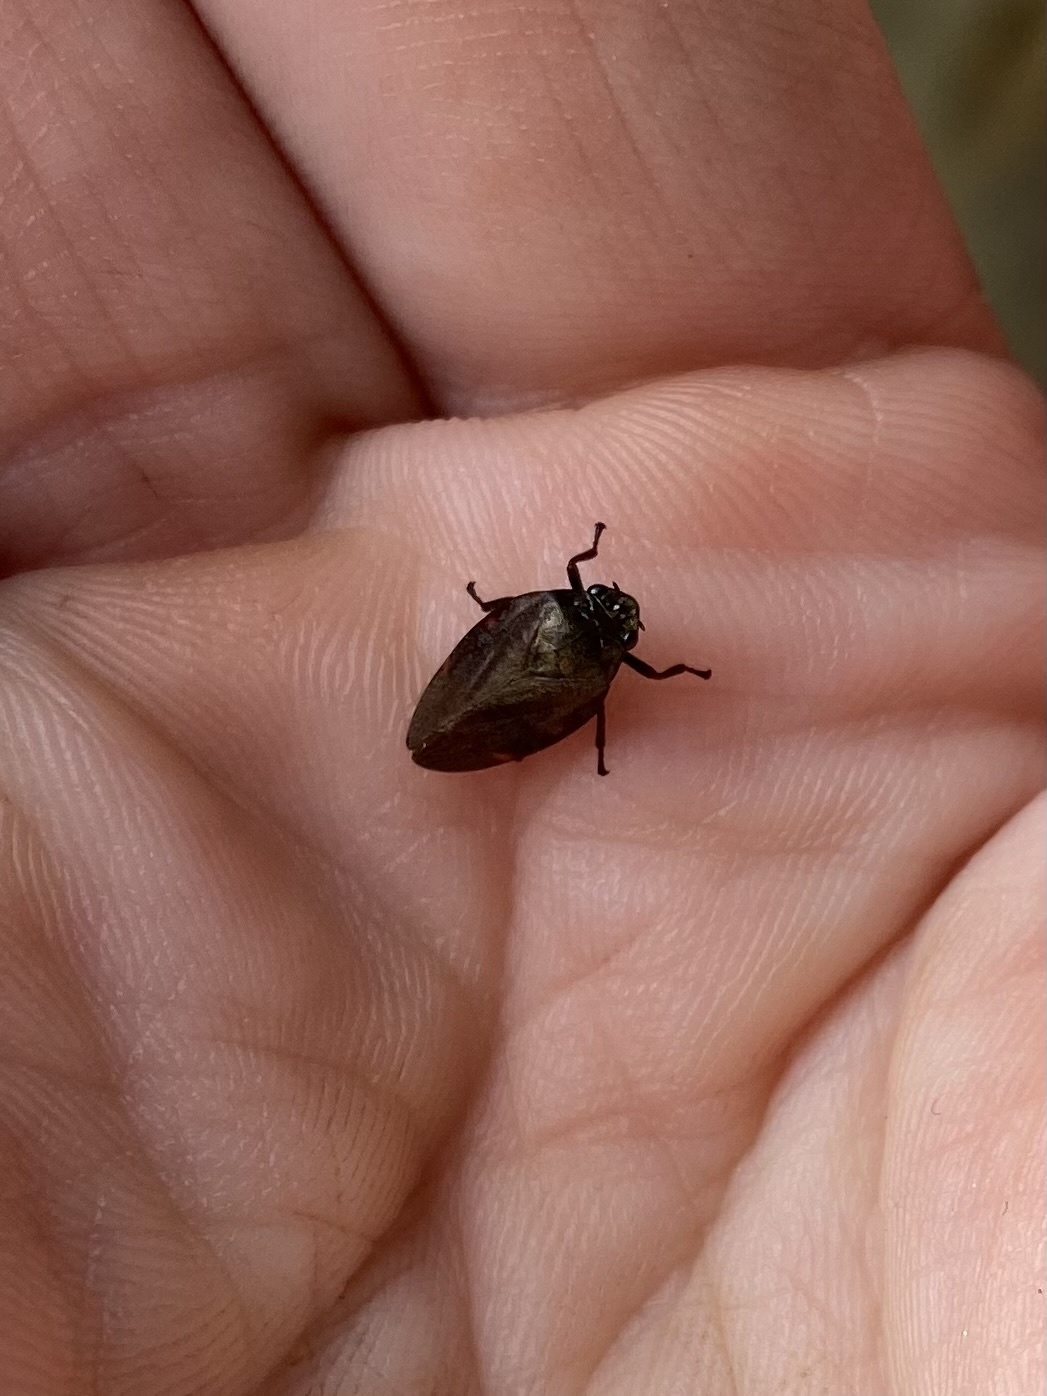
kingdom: Animalia
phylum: Arthropoda
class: Insecta
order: Hemiptera
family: Cercopidae
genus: Zulia
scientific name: Zulia vilior
